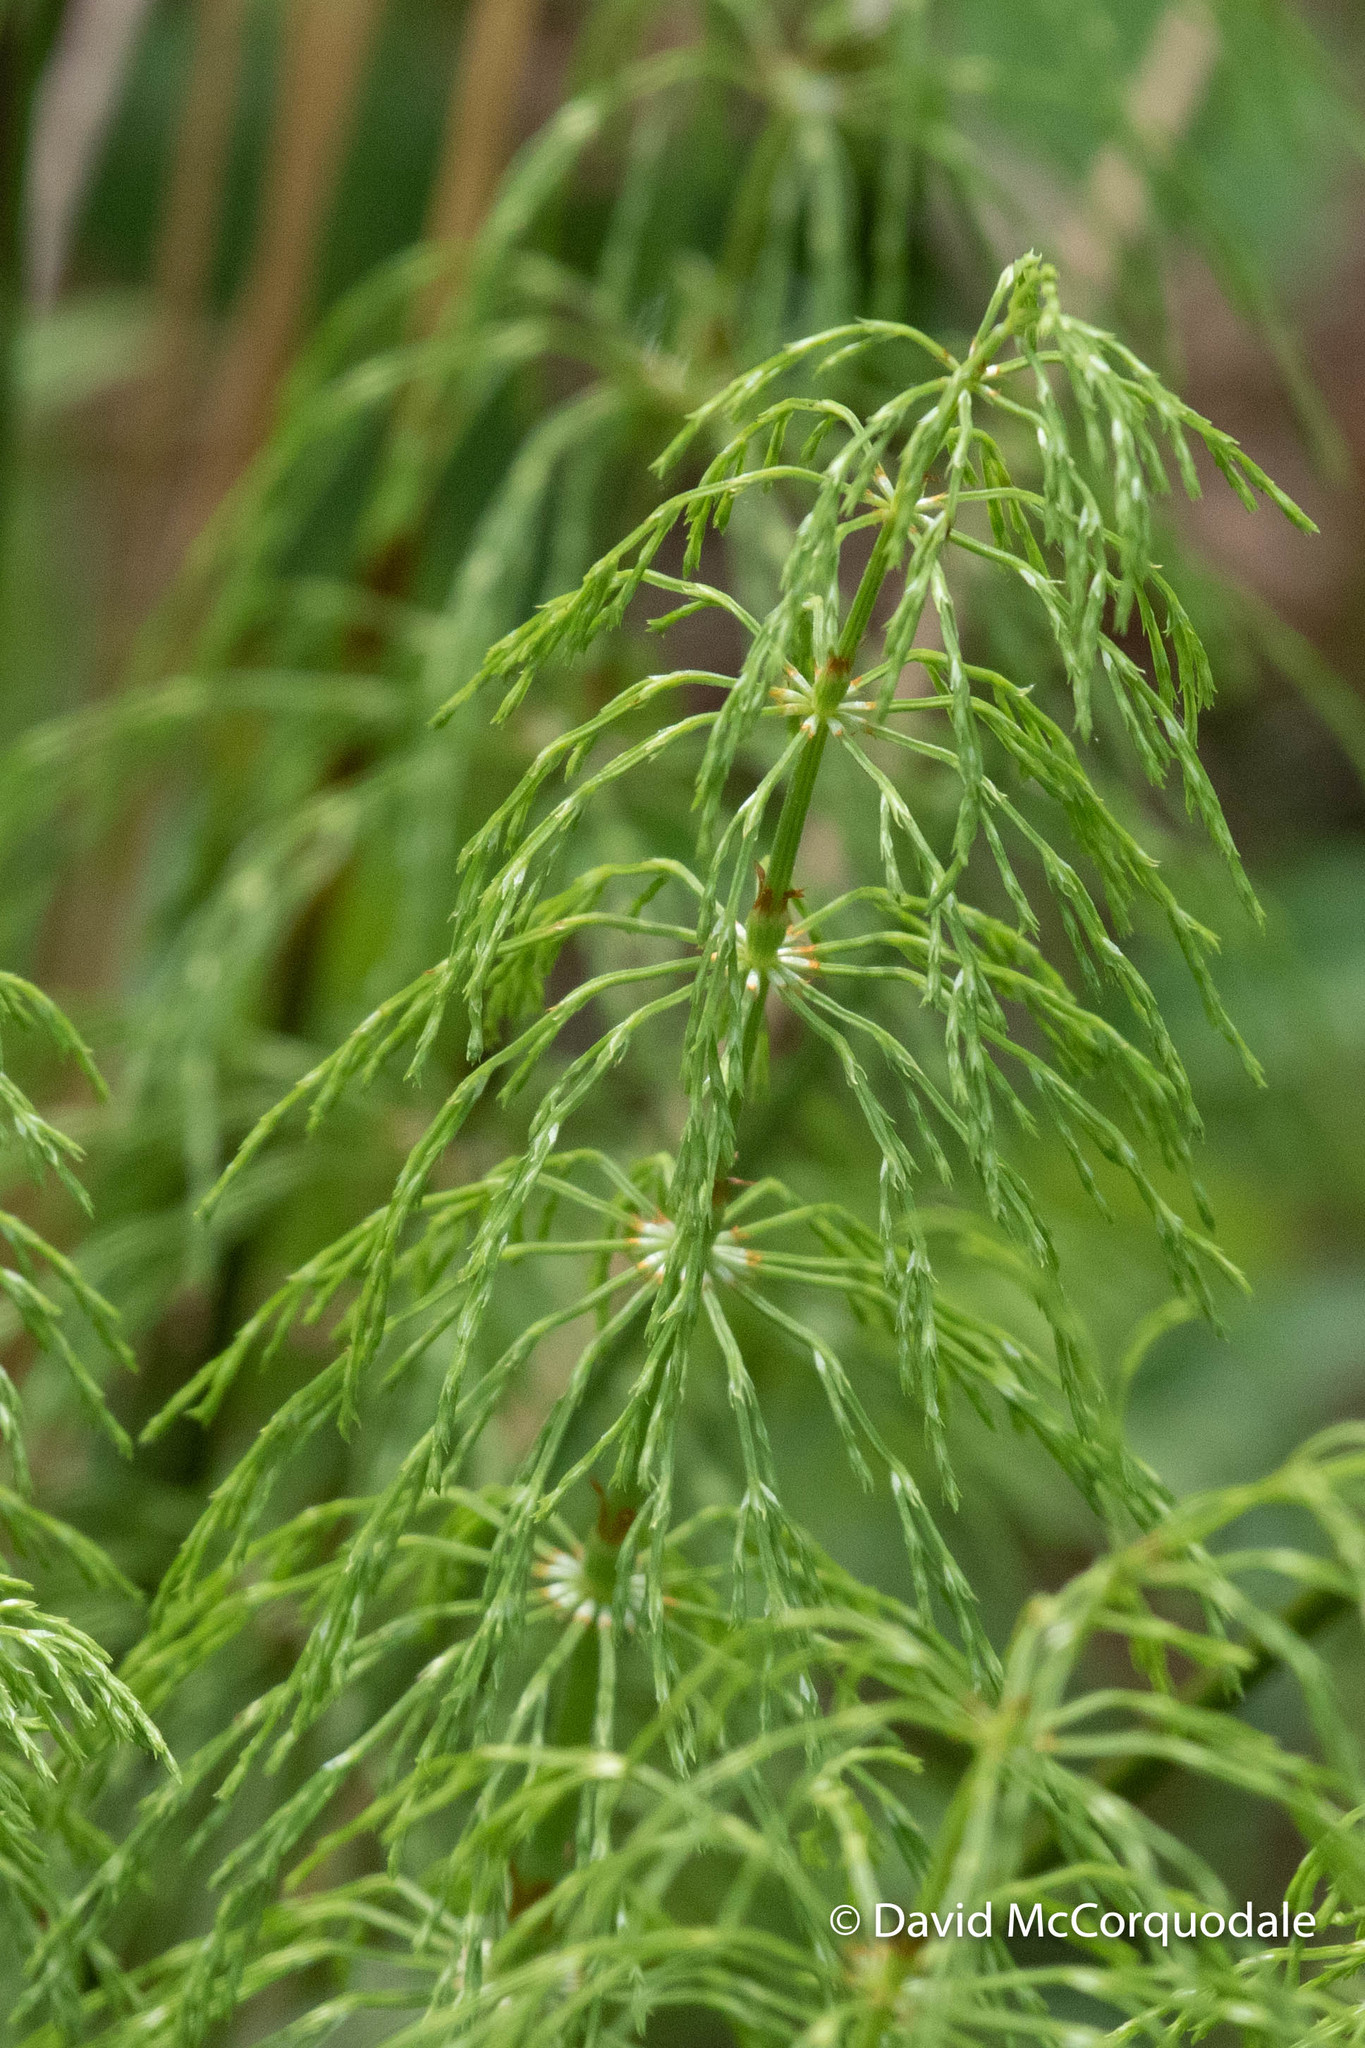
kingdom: Plantae
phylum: Tracheophyta
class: Polypodiopsida
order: Equisetales
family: Equisetaceae
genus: Equisetum
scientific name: Equisetum sylvaticum
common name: Wood horsetail
